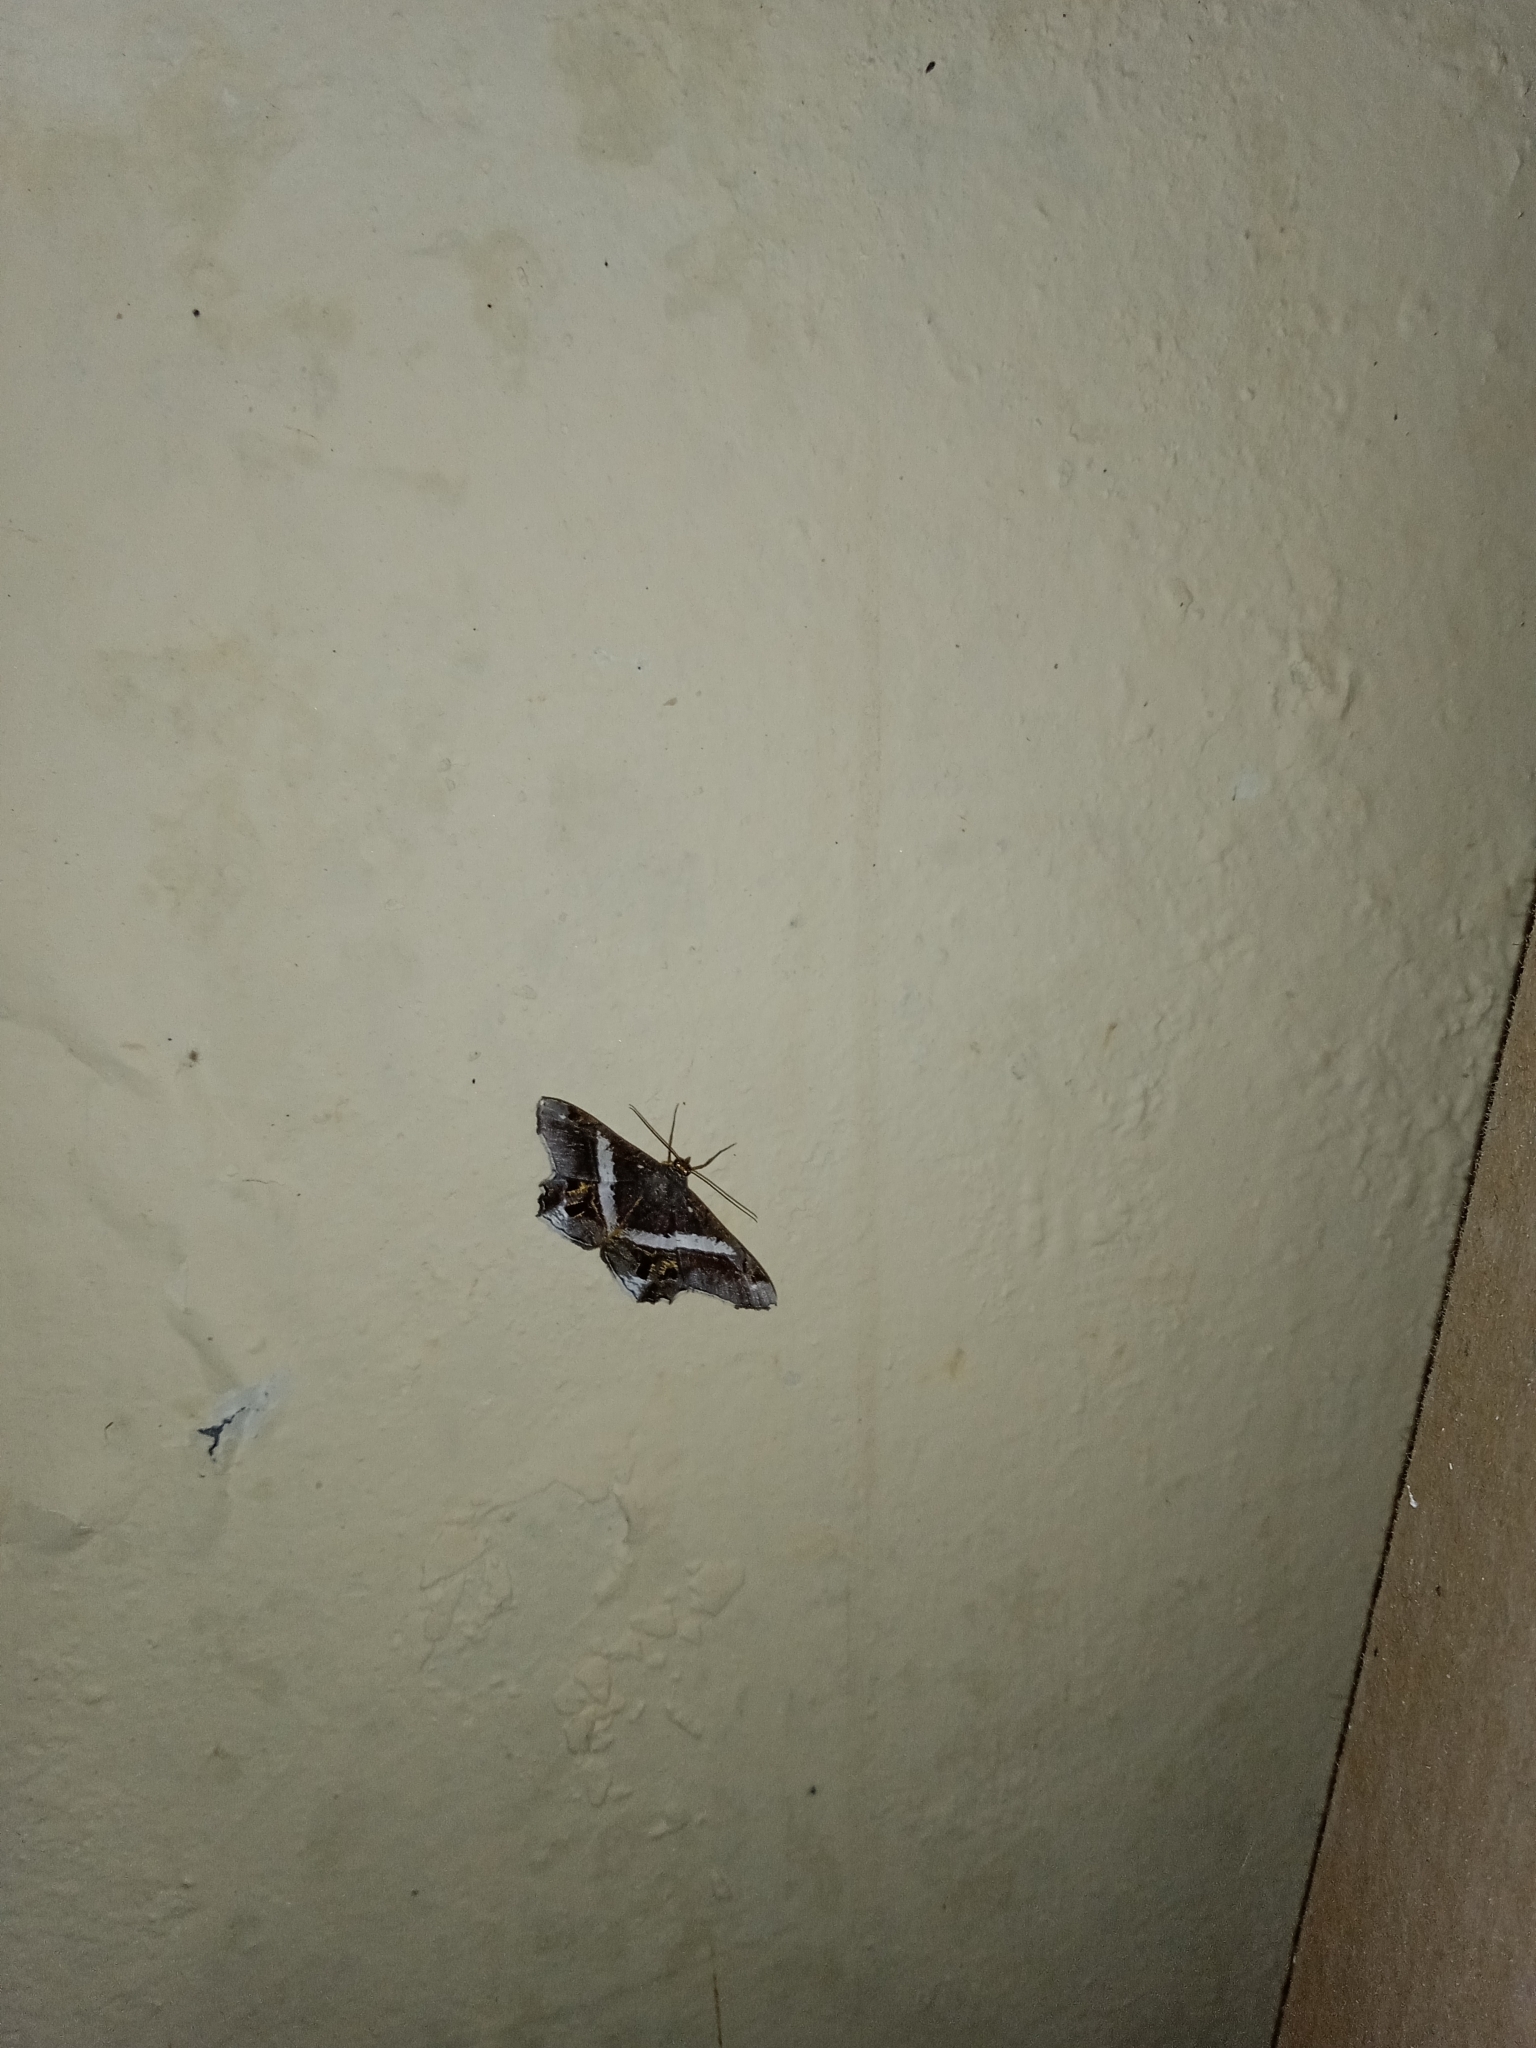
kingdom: Animalia
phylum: Arthropoda
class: Insecta
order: Lepidoptera
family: Geometridae
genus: Chiasmia
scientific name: Chiasmia nora
